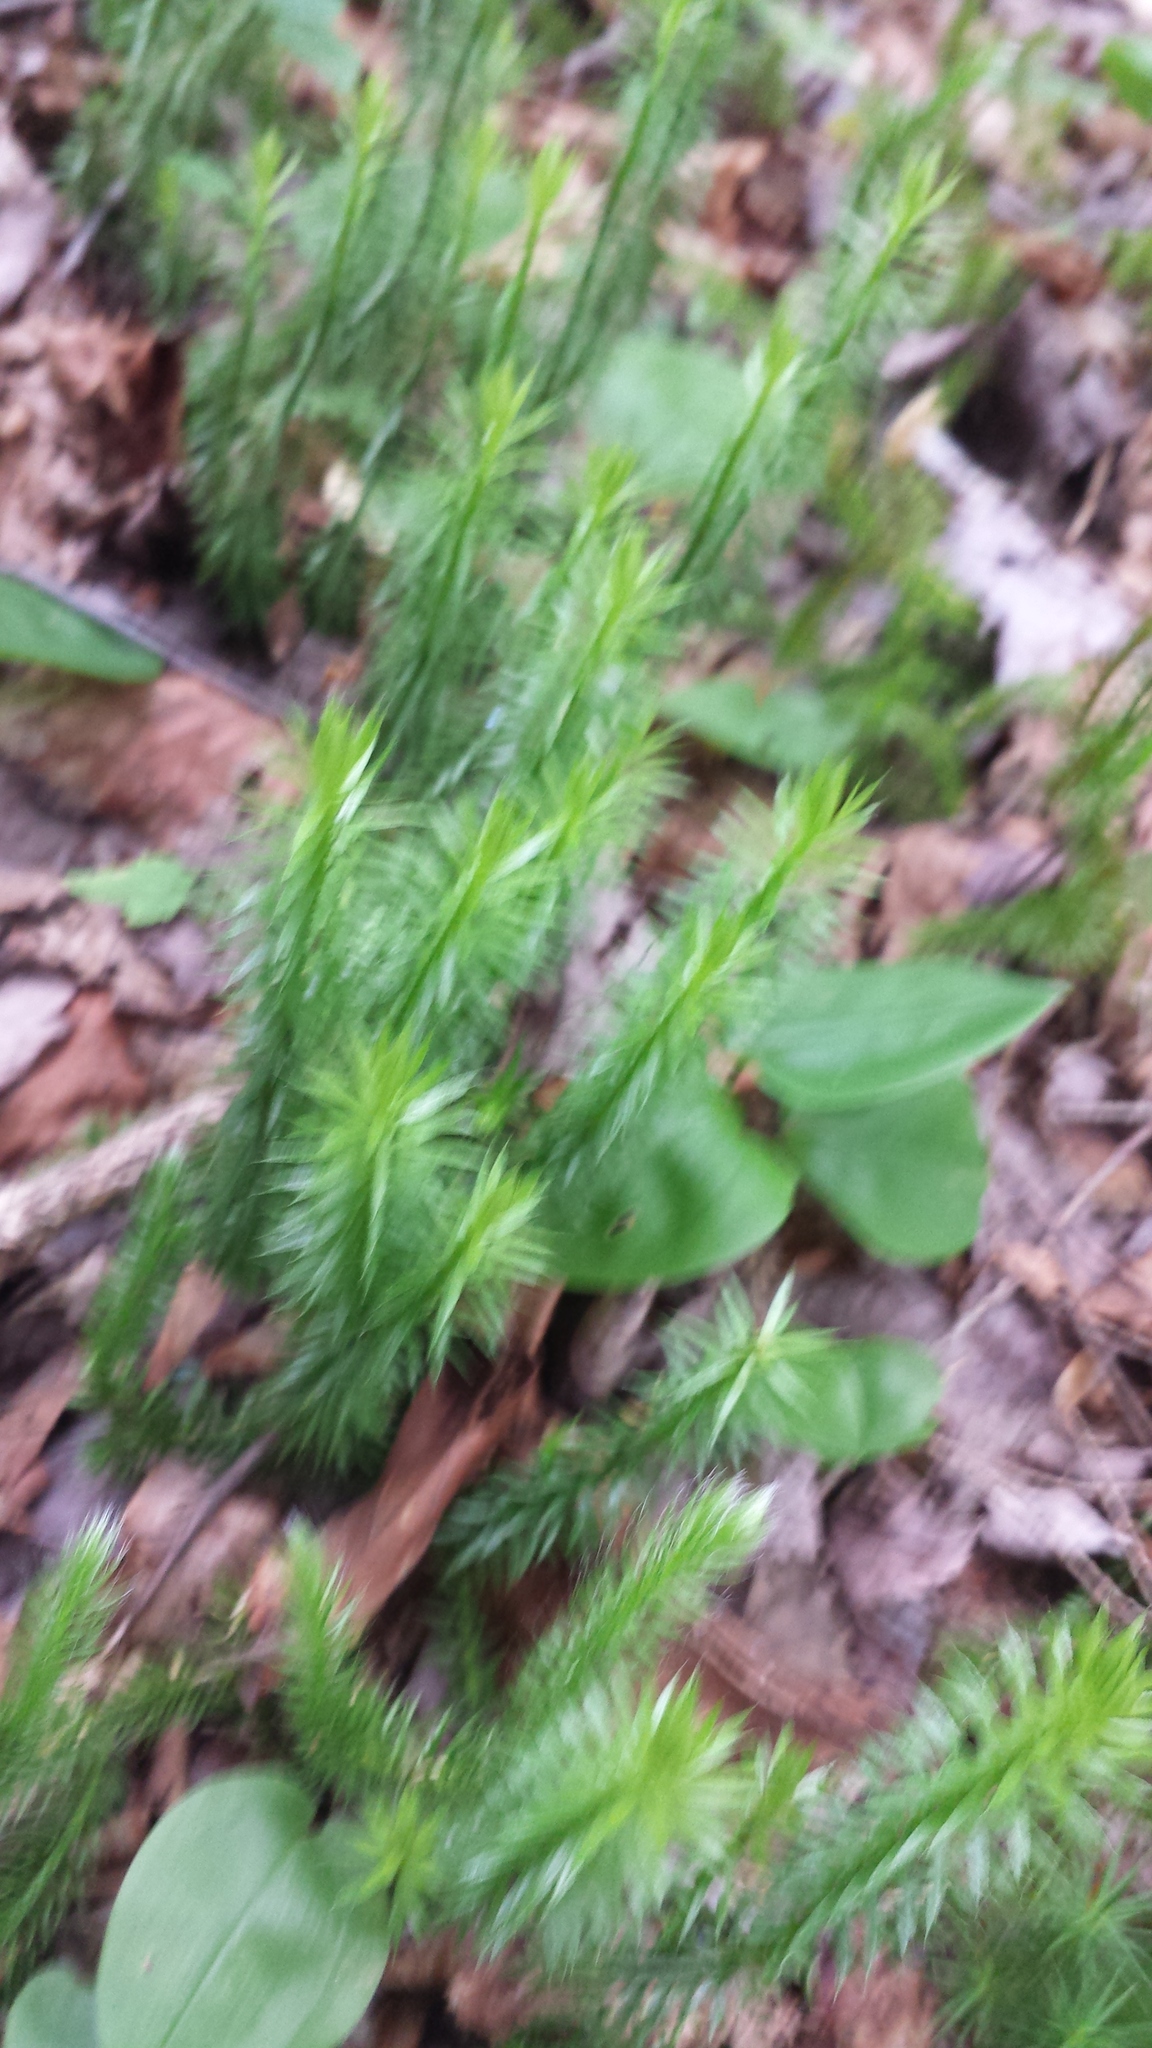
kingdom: Plantae
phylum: Tracheophyta
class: Lycopodiopsida
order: Lycopodiales
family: Lycopodiaceae
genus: Spinulum
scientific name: Spinulum annotinum
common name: Interrupted club-moss
